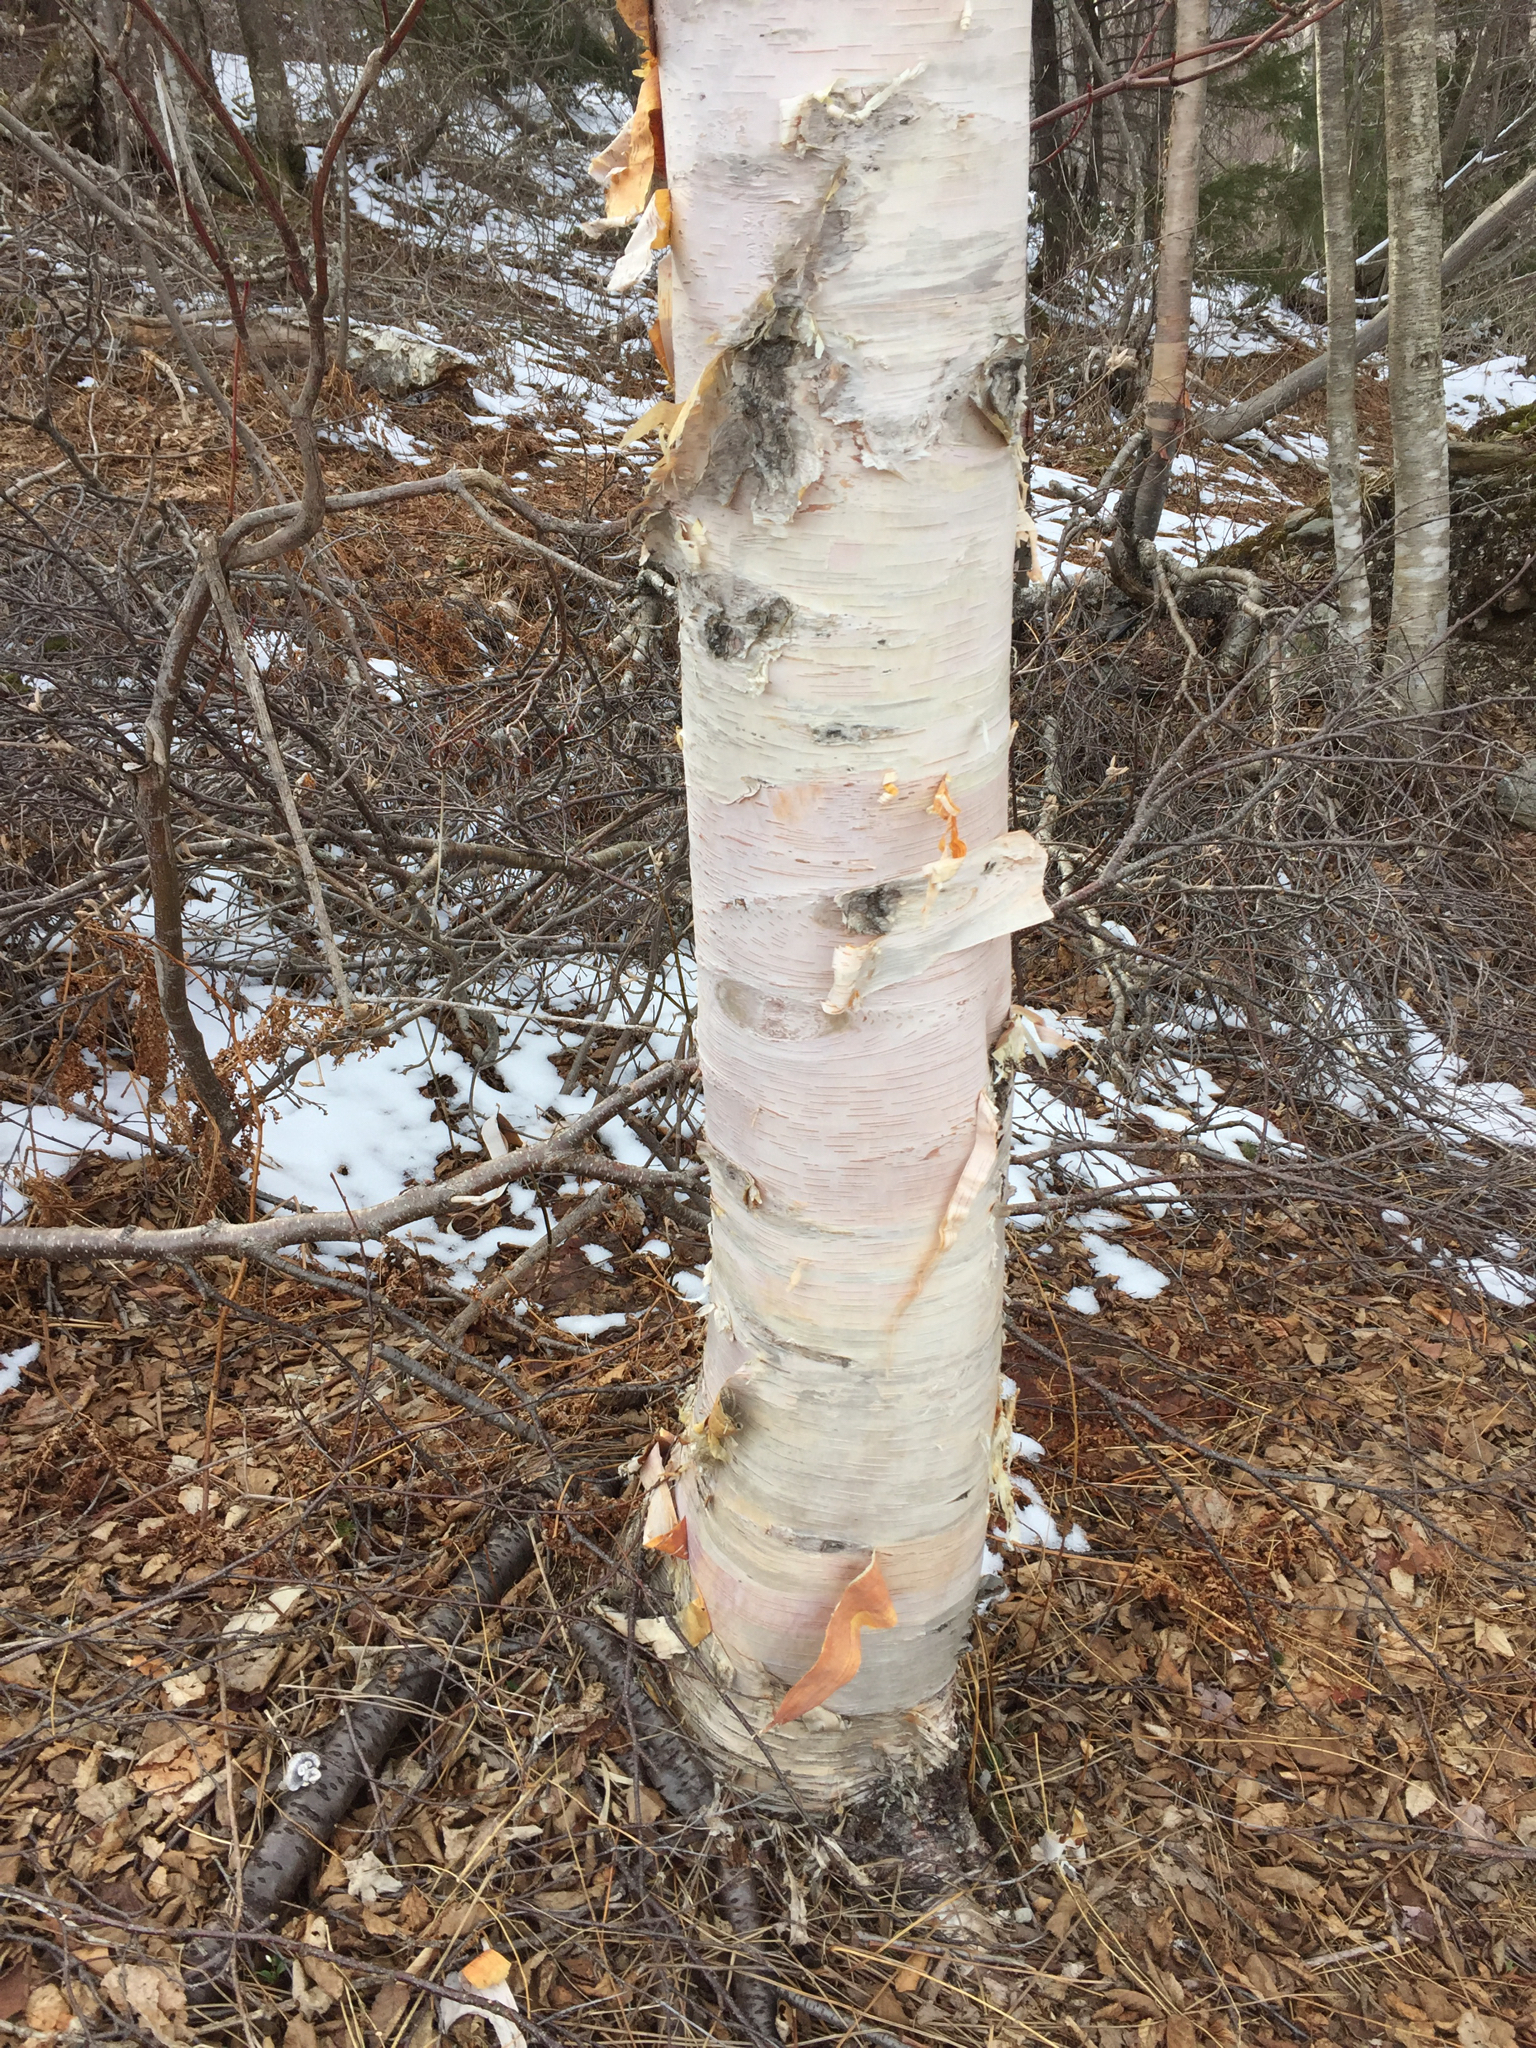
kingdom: Plantae
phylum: Tracheophyta
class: Magnoliopsida
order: Fagales
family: Betulaceae
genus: Betula
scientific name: Betula cordifolia
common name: Mountain white birch
